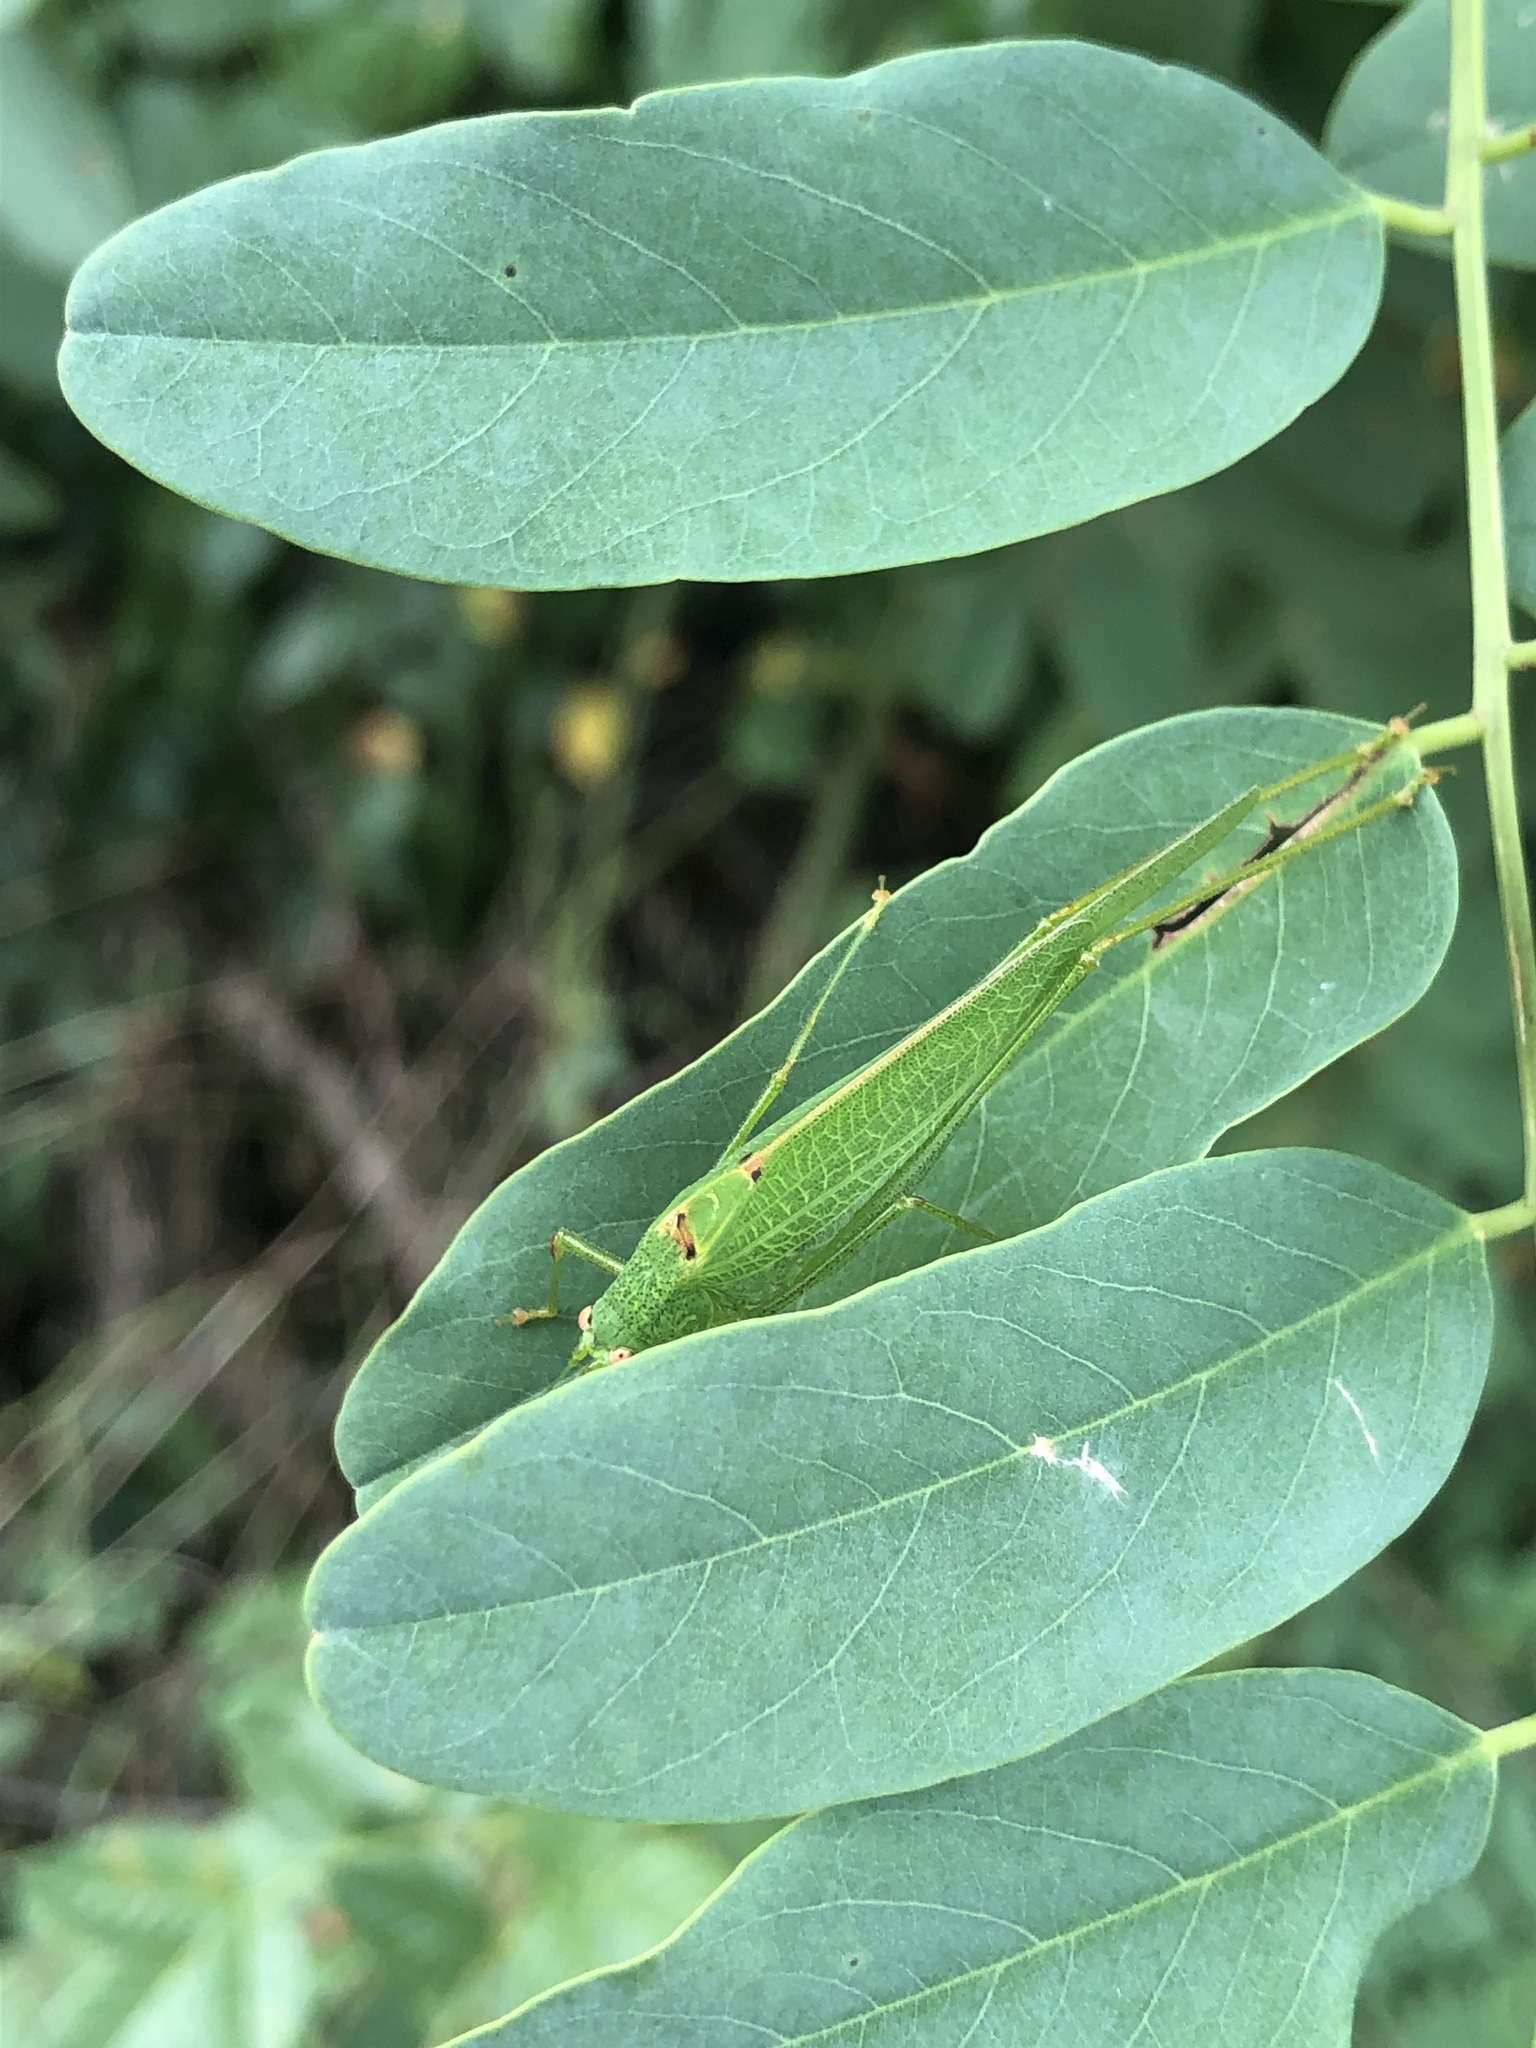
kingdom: Animalia
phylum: Arthropoda
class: Insecta
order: Orthoptera
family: Tettigoniidae
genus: Phaneroptera
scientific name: Phaneroptera nana
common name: Southern sickle bush-cricket
